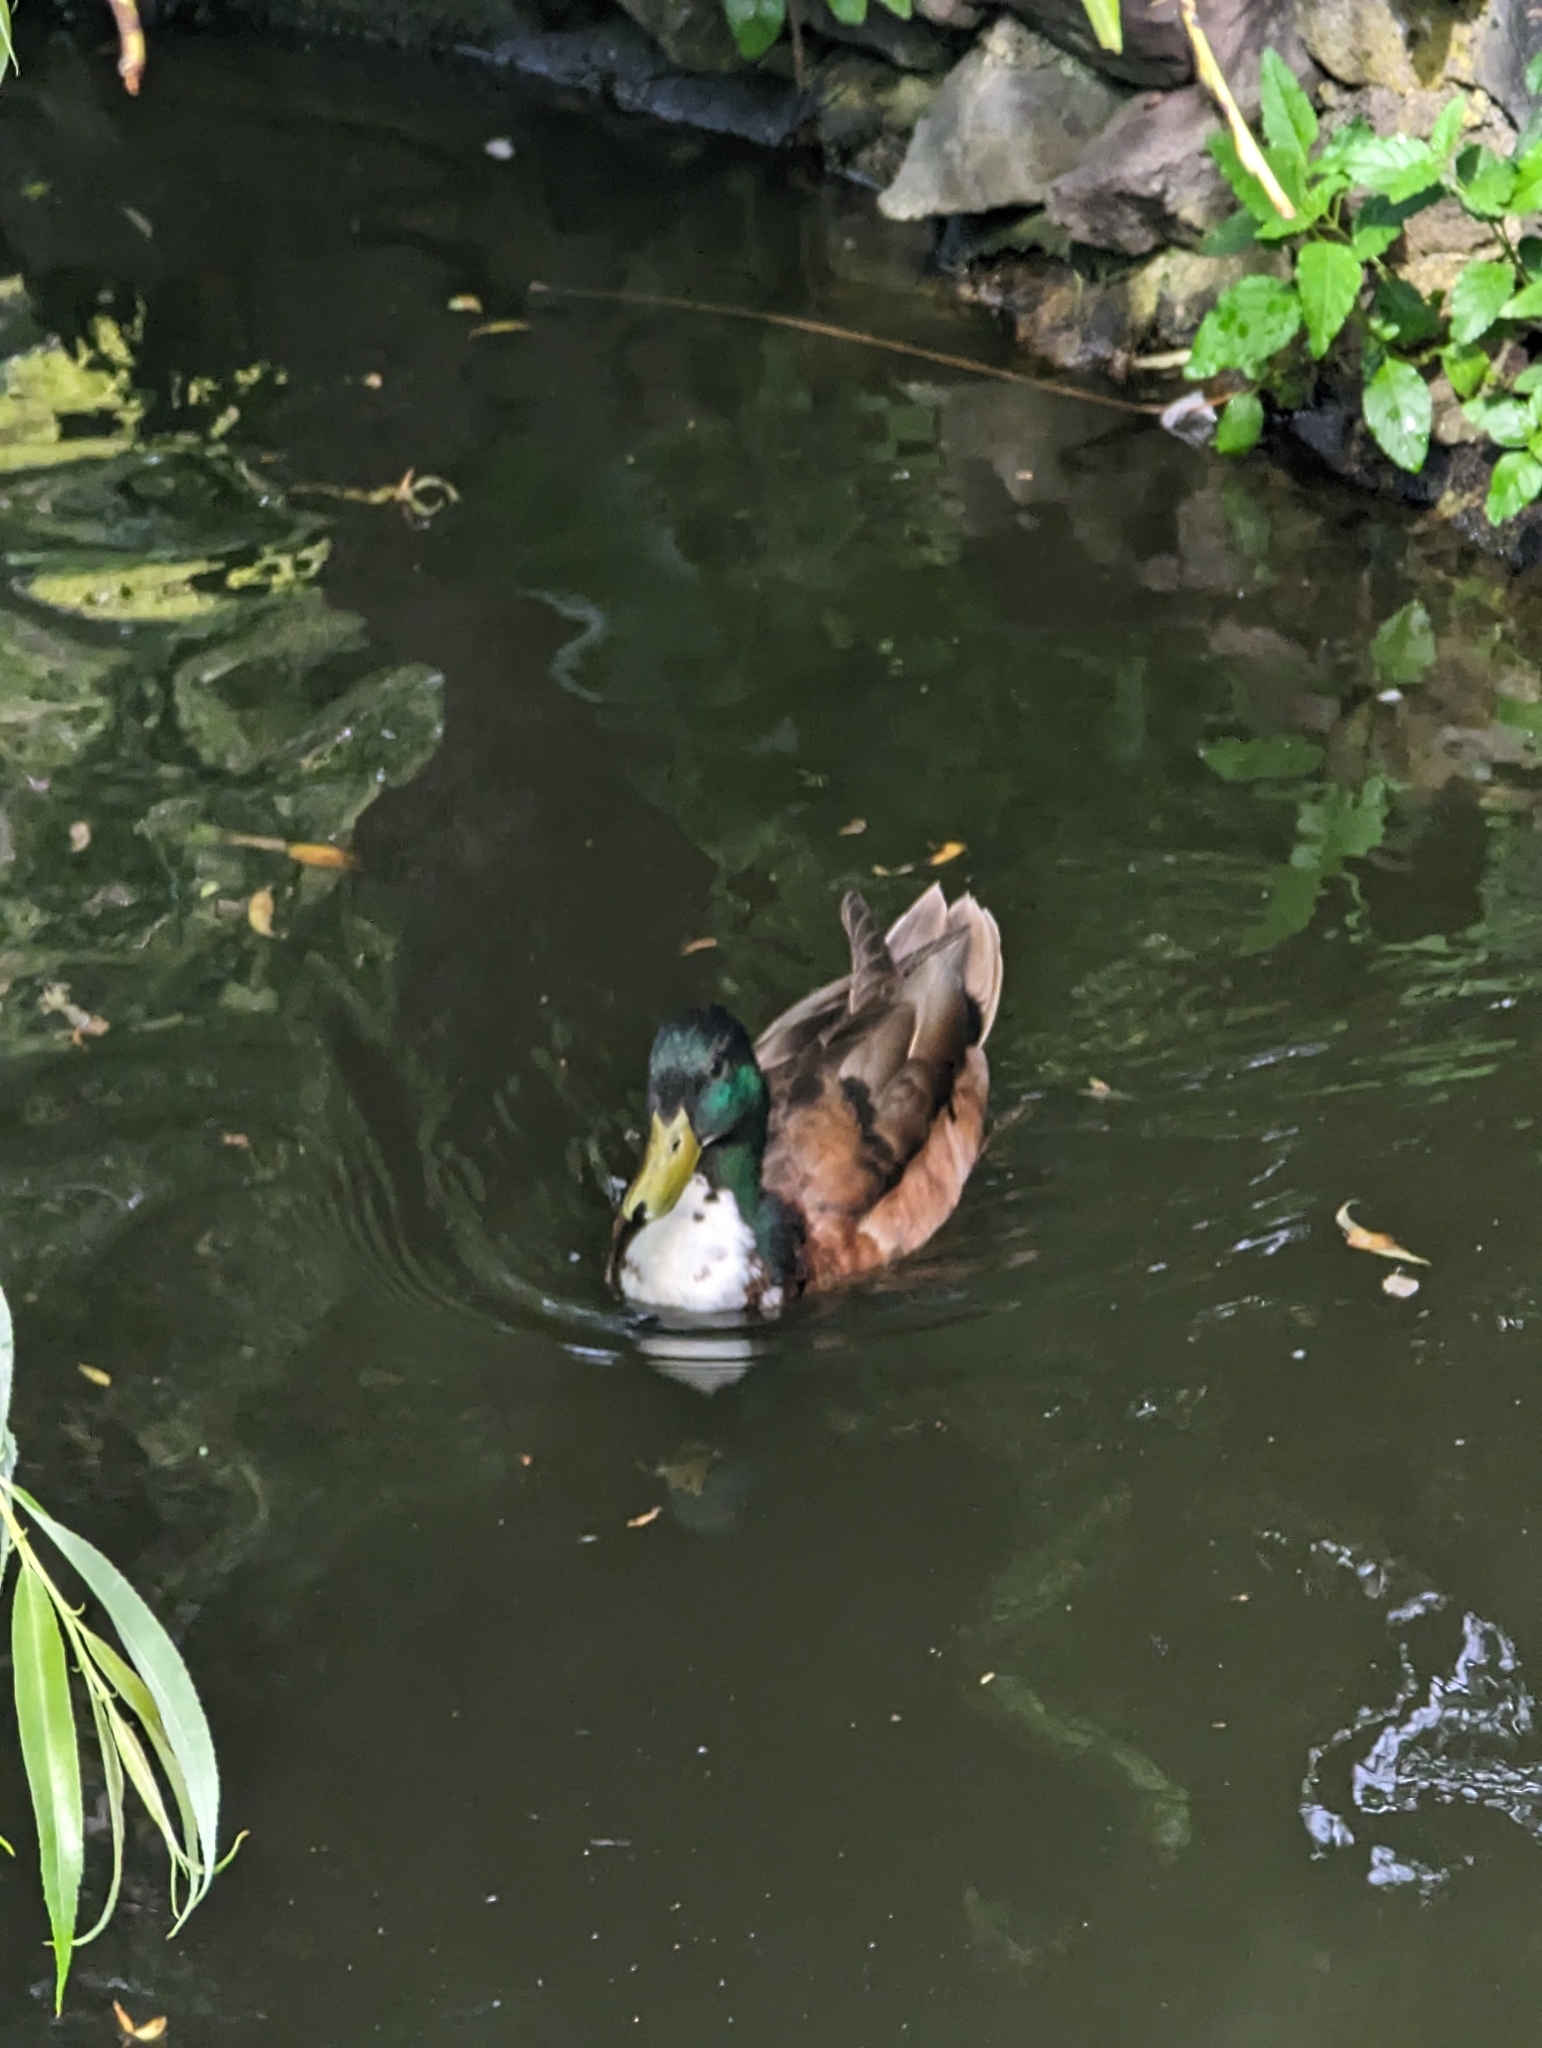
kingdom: Animalia
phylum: Chordata
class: Aves
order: Anseriformes
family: Anatidae
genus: Anas
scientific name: Anas platyrhynchos
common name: Mallard
